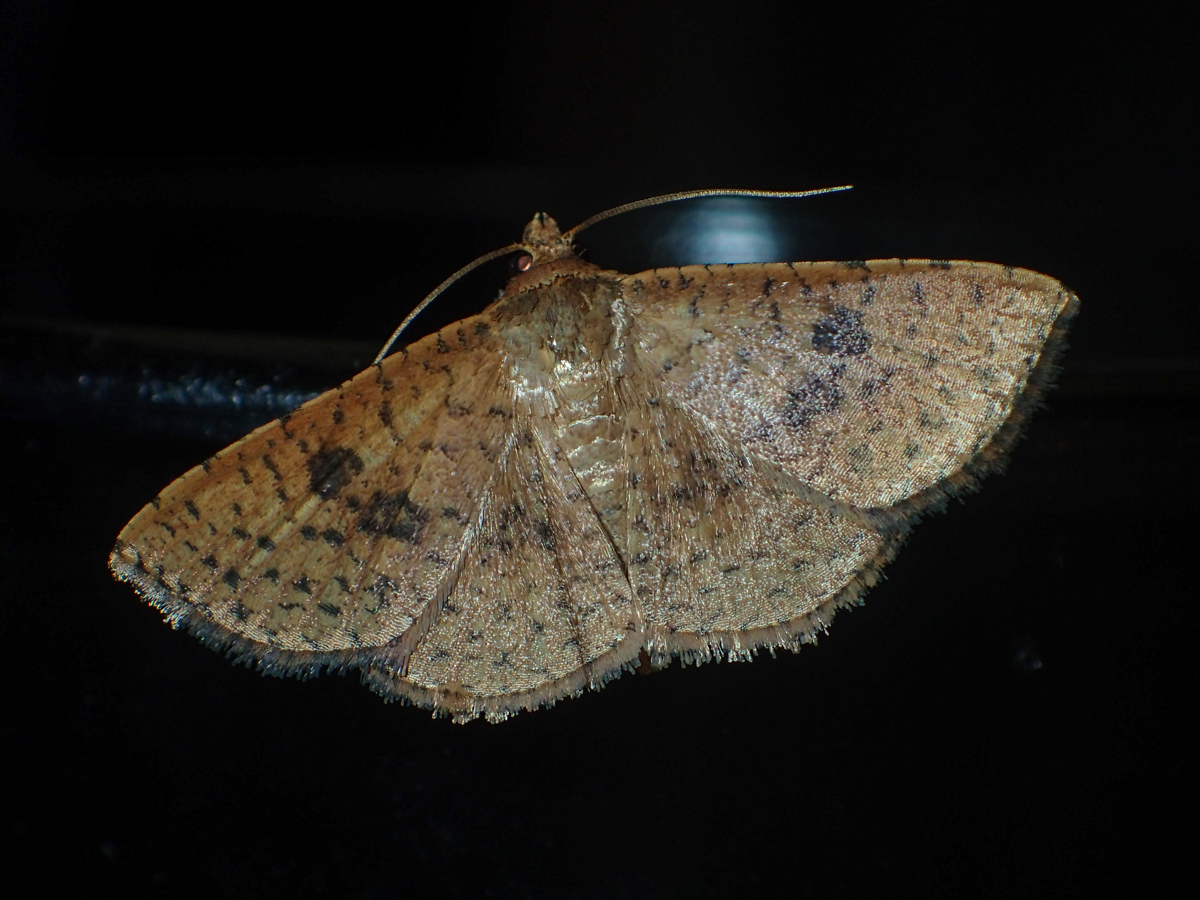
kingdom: Animalia
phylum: Arthropoda
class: Insecta
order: Lepidoptera
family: Thyrididae
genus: Striglina
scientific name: Striglina duplicifimbria
